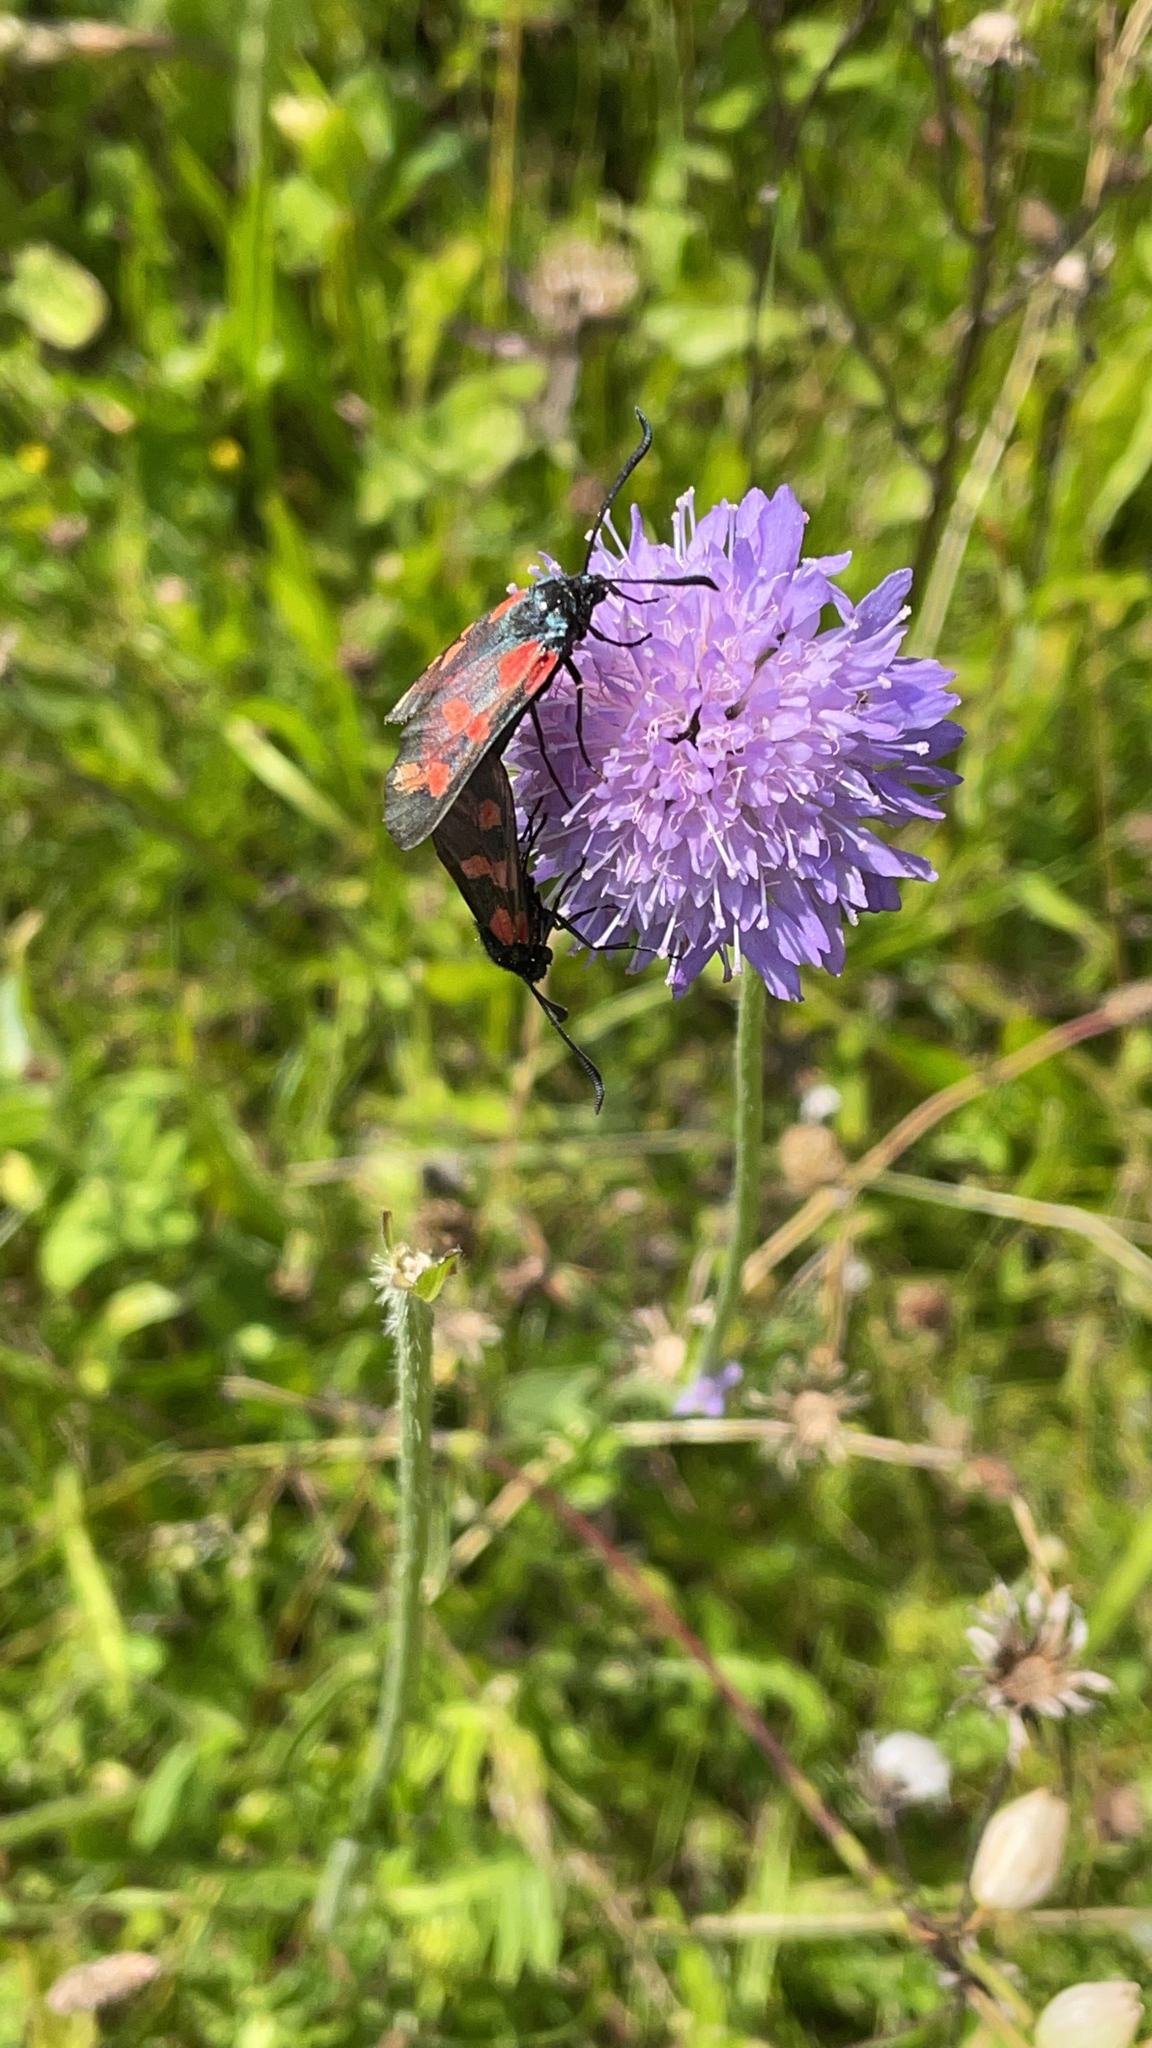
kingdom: Animalia
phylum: Arthropoda
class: Insecta
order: Lepidoptera
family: Zygaenidae
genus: Zygaena
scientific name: Zygaena filipendulae
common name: Six-spot burnet
